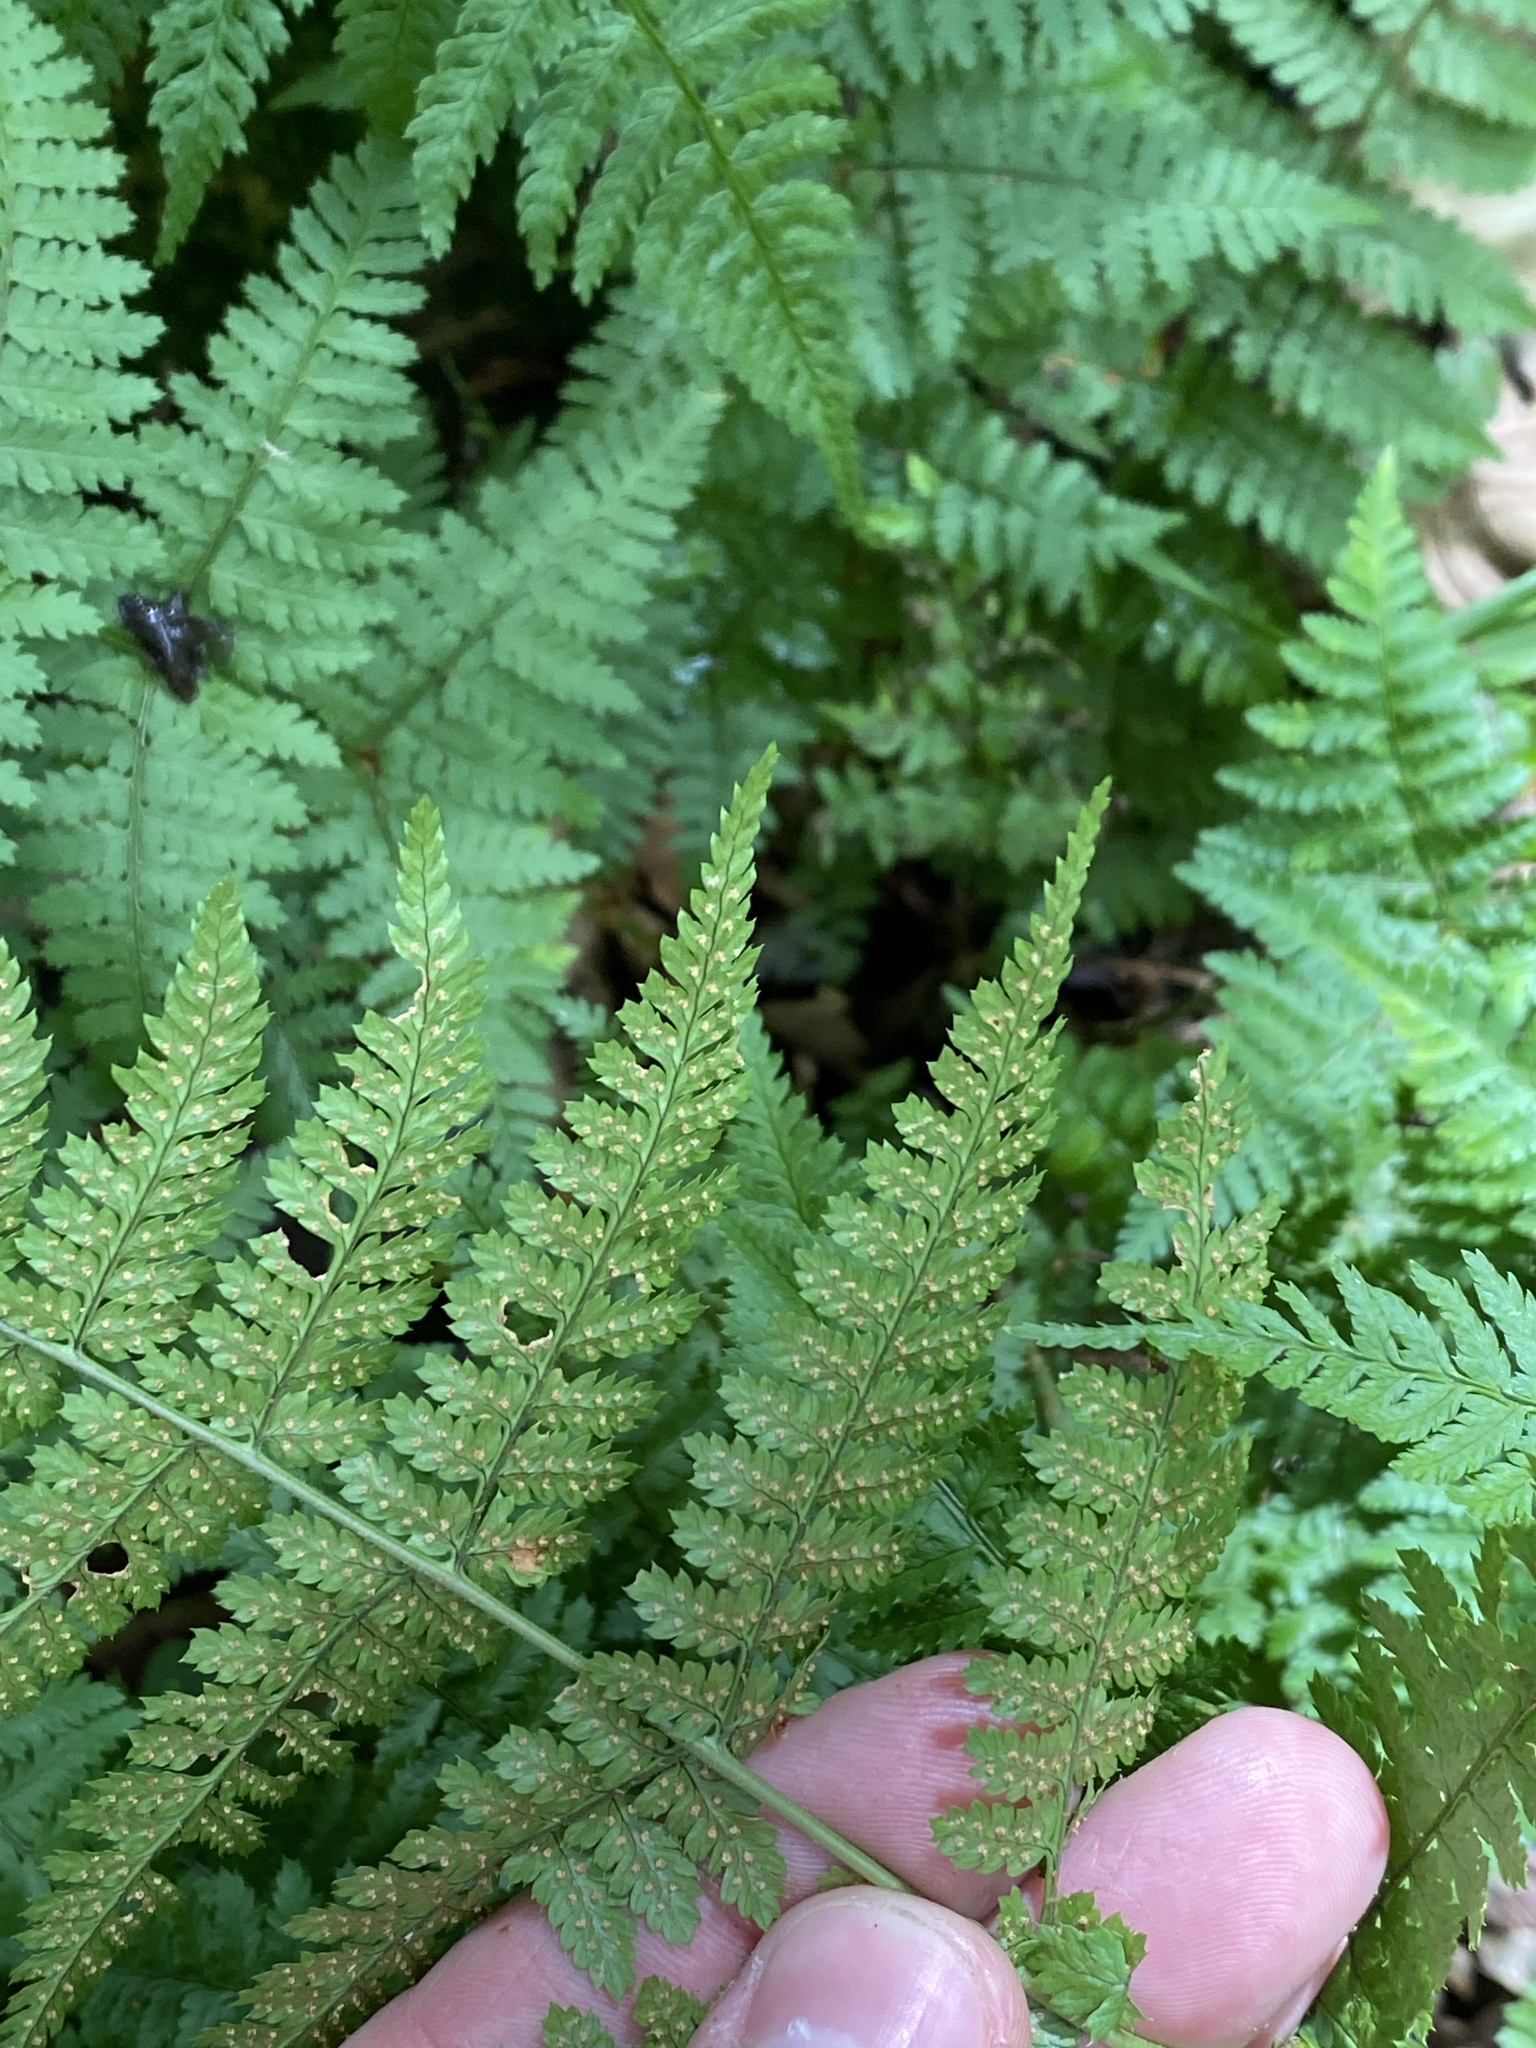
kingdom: Plantae
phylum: Tracheophyta
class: Polypodiopsida
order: Polypodiales
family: Dryopteridaceae
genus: Dryopteris
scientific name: Dryopteris intermedia
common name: Evergreen wood fern
